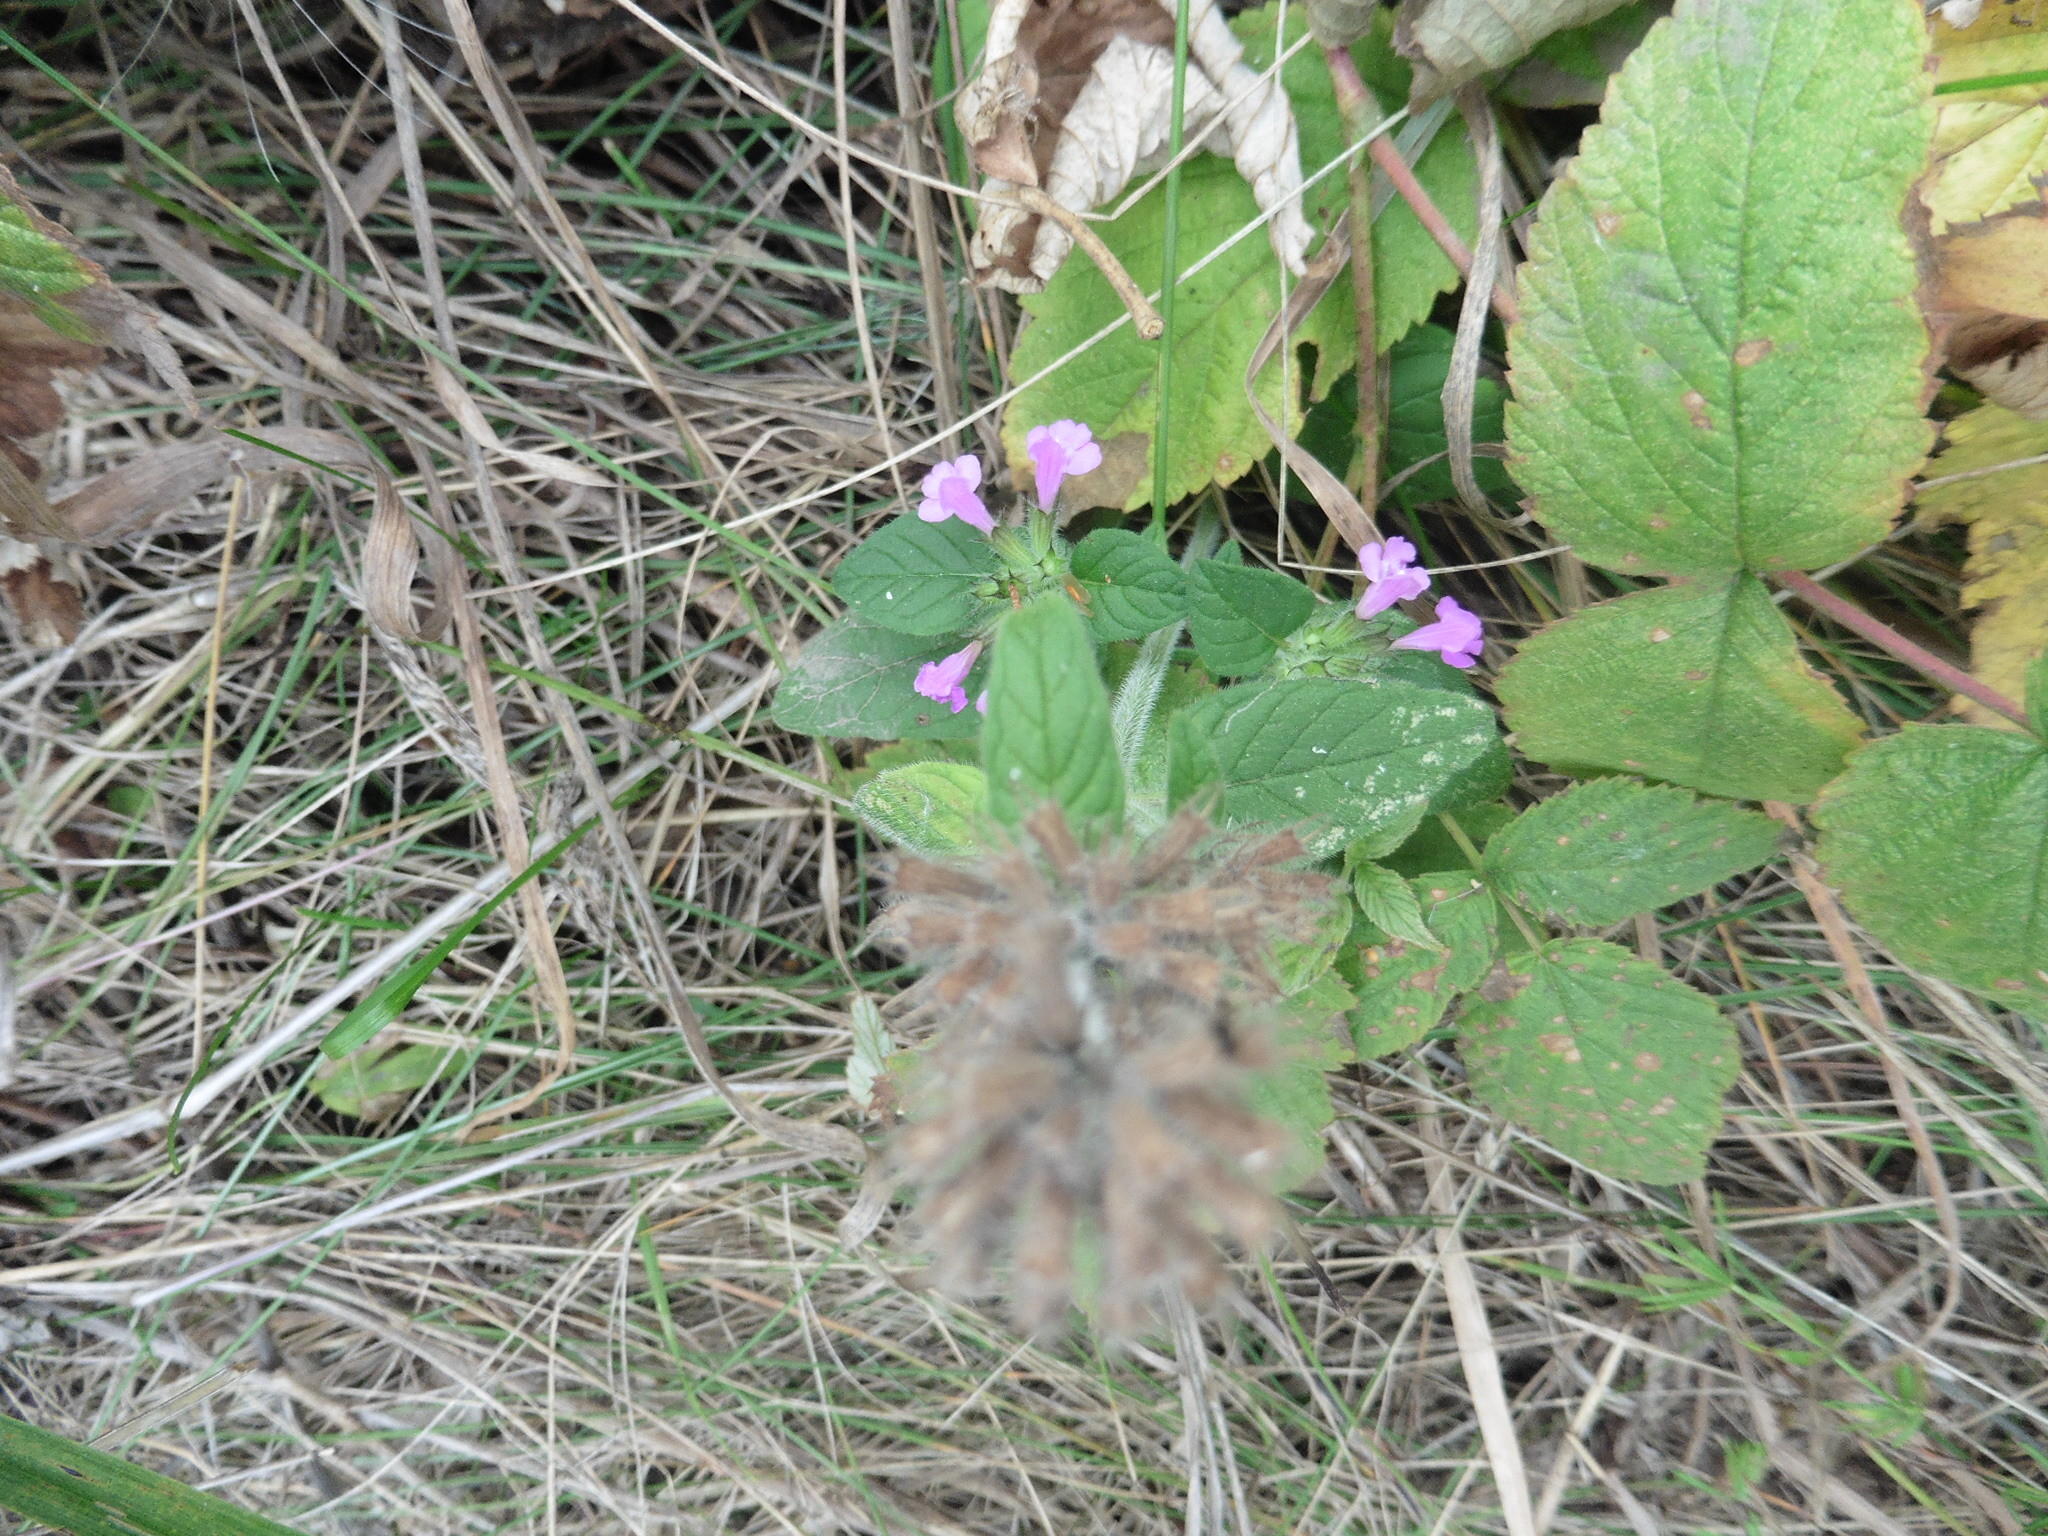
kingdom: Plantae
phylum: Tracheophyta
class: Magnoliopsida
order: Lamiales
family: Lamiaceae
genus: Clinopodium
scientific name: Clinopodium vulgare
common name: Wild basil
